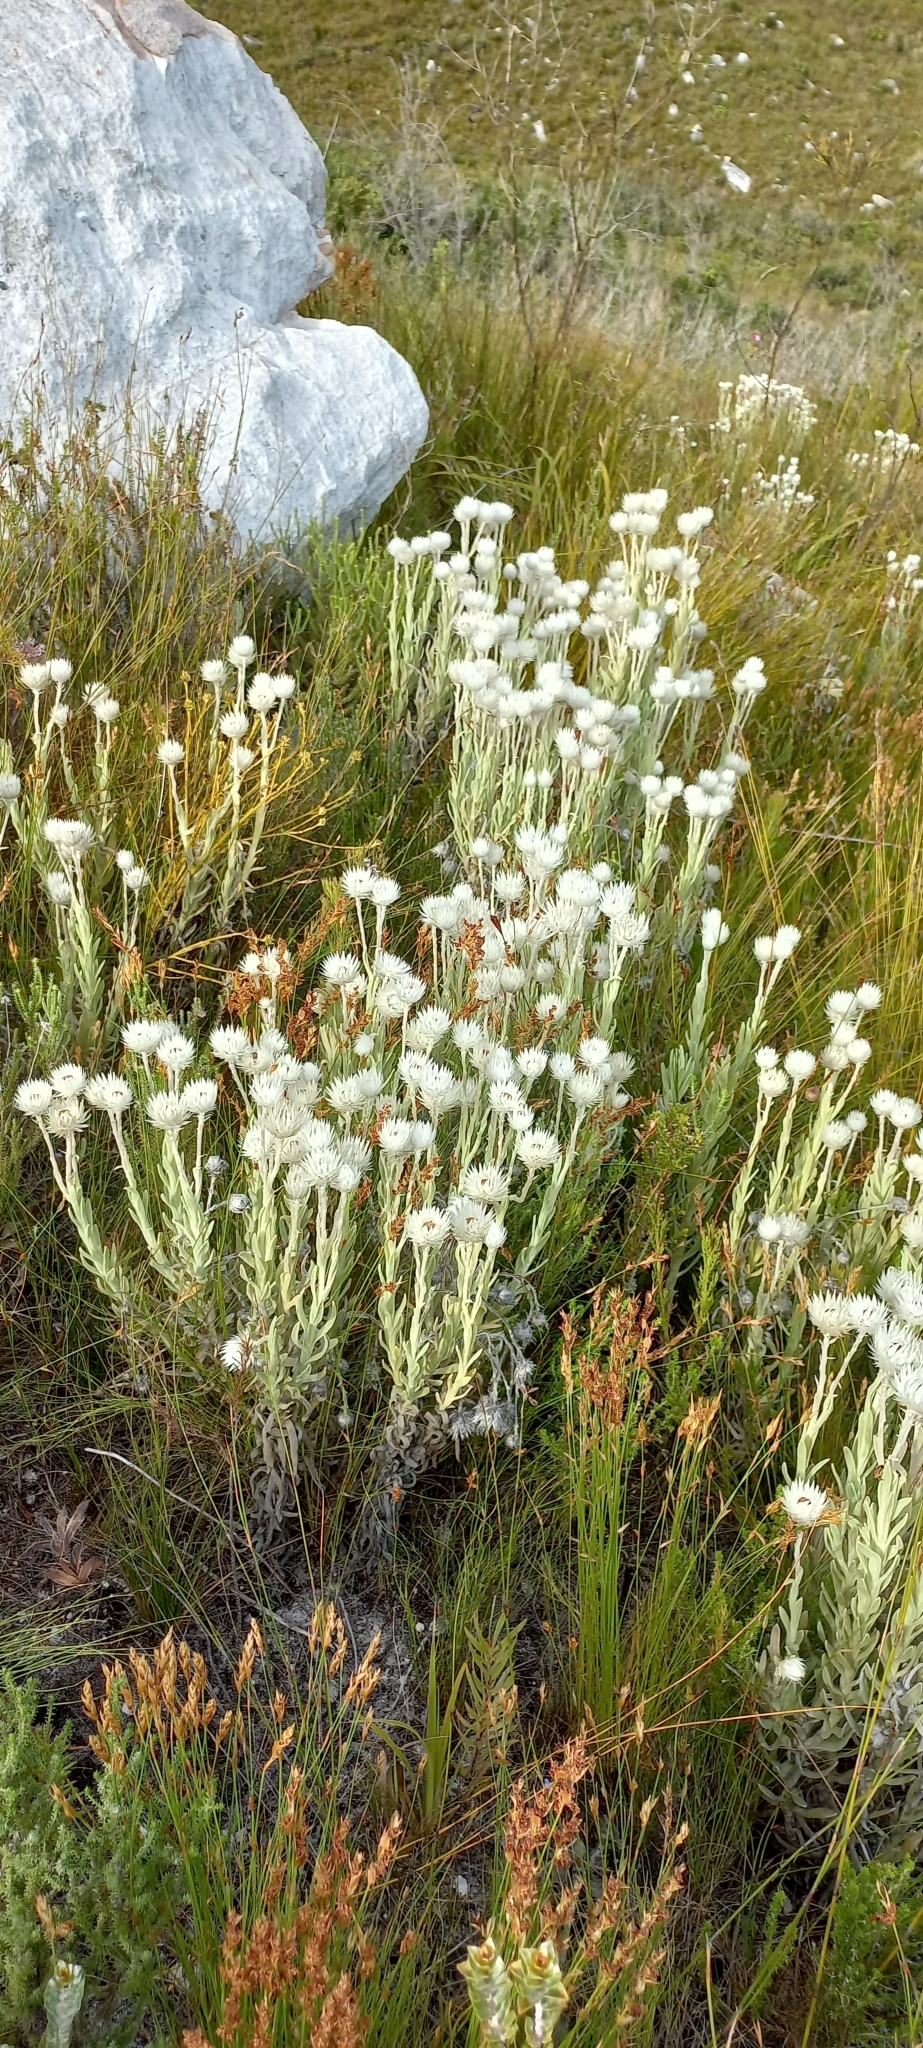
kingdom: Plantae
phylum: Tracheophyta
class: Magnoliopsida
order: Asterales
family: Asteraceae
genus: Syncarpha
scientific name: Syncarpha vestita
